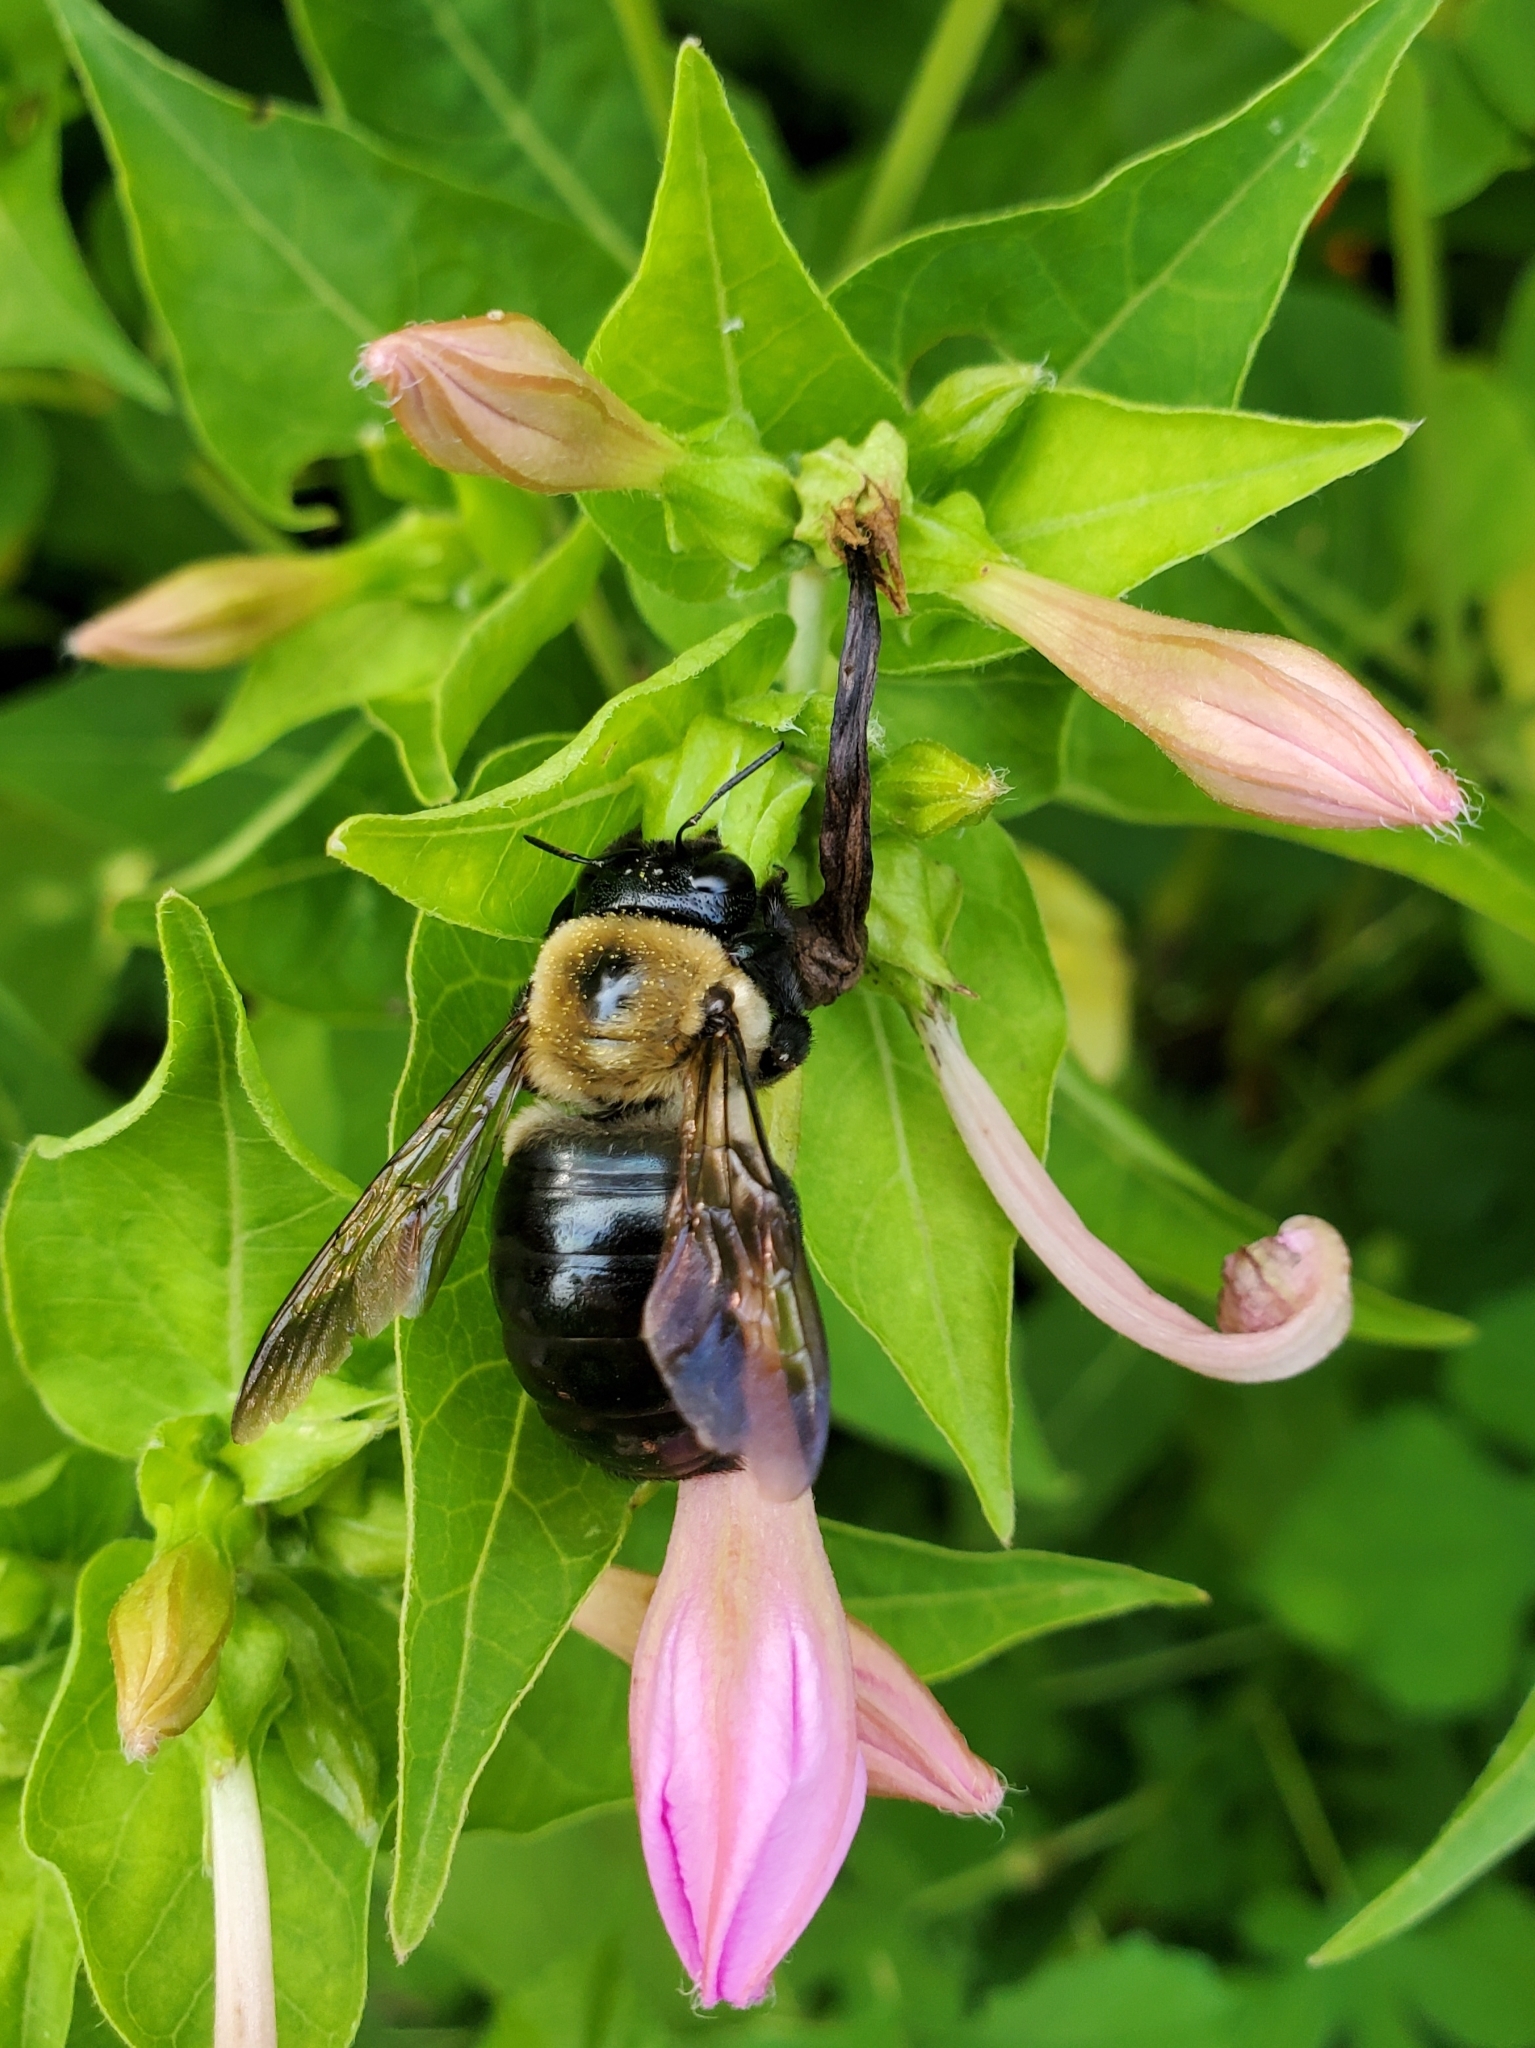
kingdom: Animalia
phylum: Arthropoda
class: Insecta
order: Hymenoptera
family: Apidae
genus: Xylocopa
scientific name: Xylocopa virginica
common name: Carpenter bee
